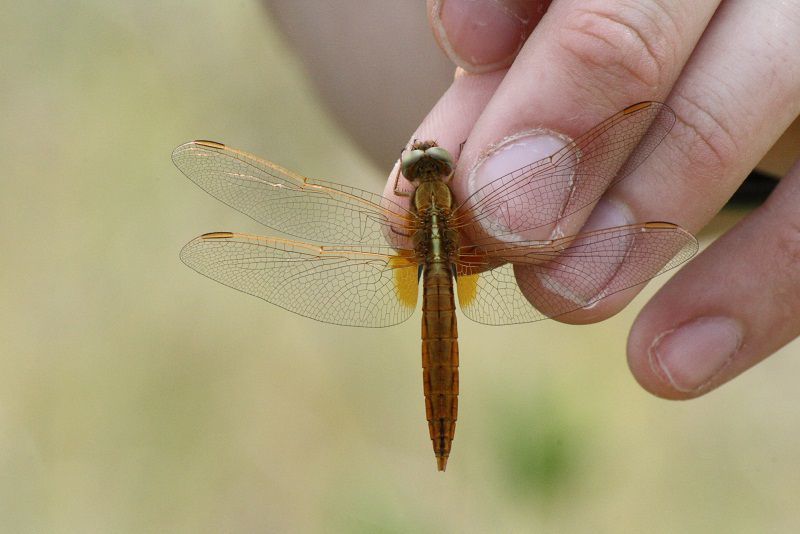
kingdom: Animalia
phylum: Arthropoda
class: Insecta
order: Odonata
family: Libellulidae
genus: Crocothemis
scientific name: Crocothemis erythraea
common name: Scarlet dragonfly
